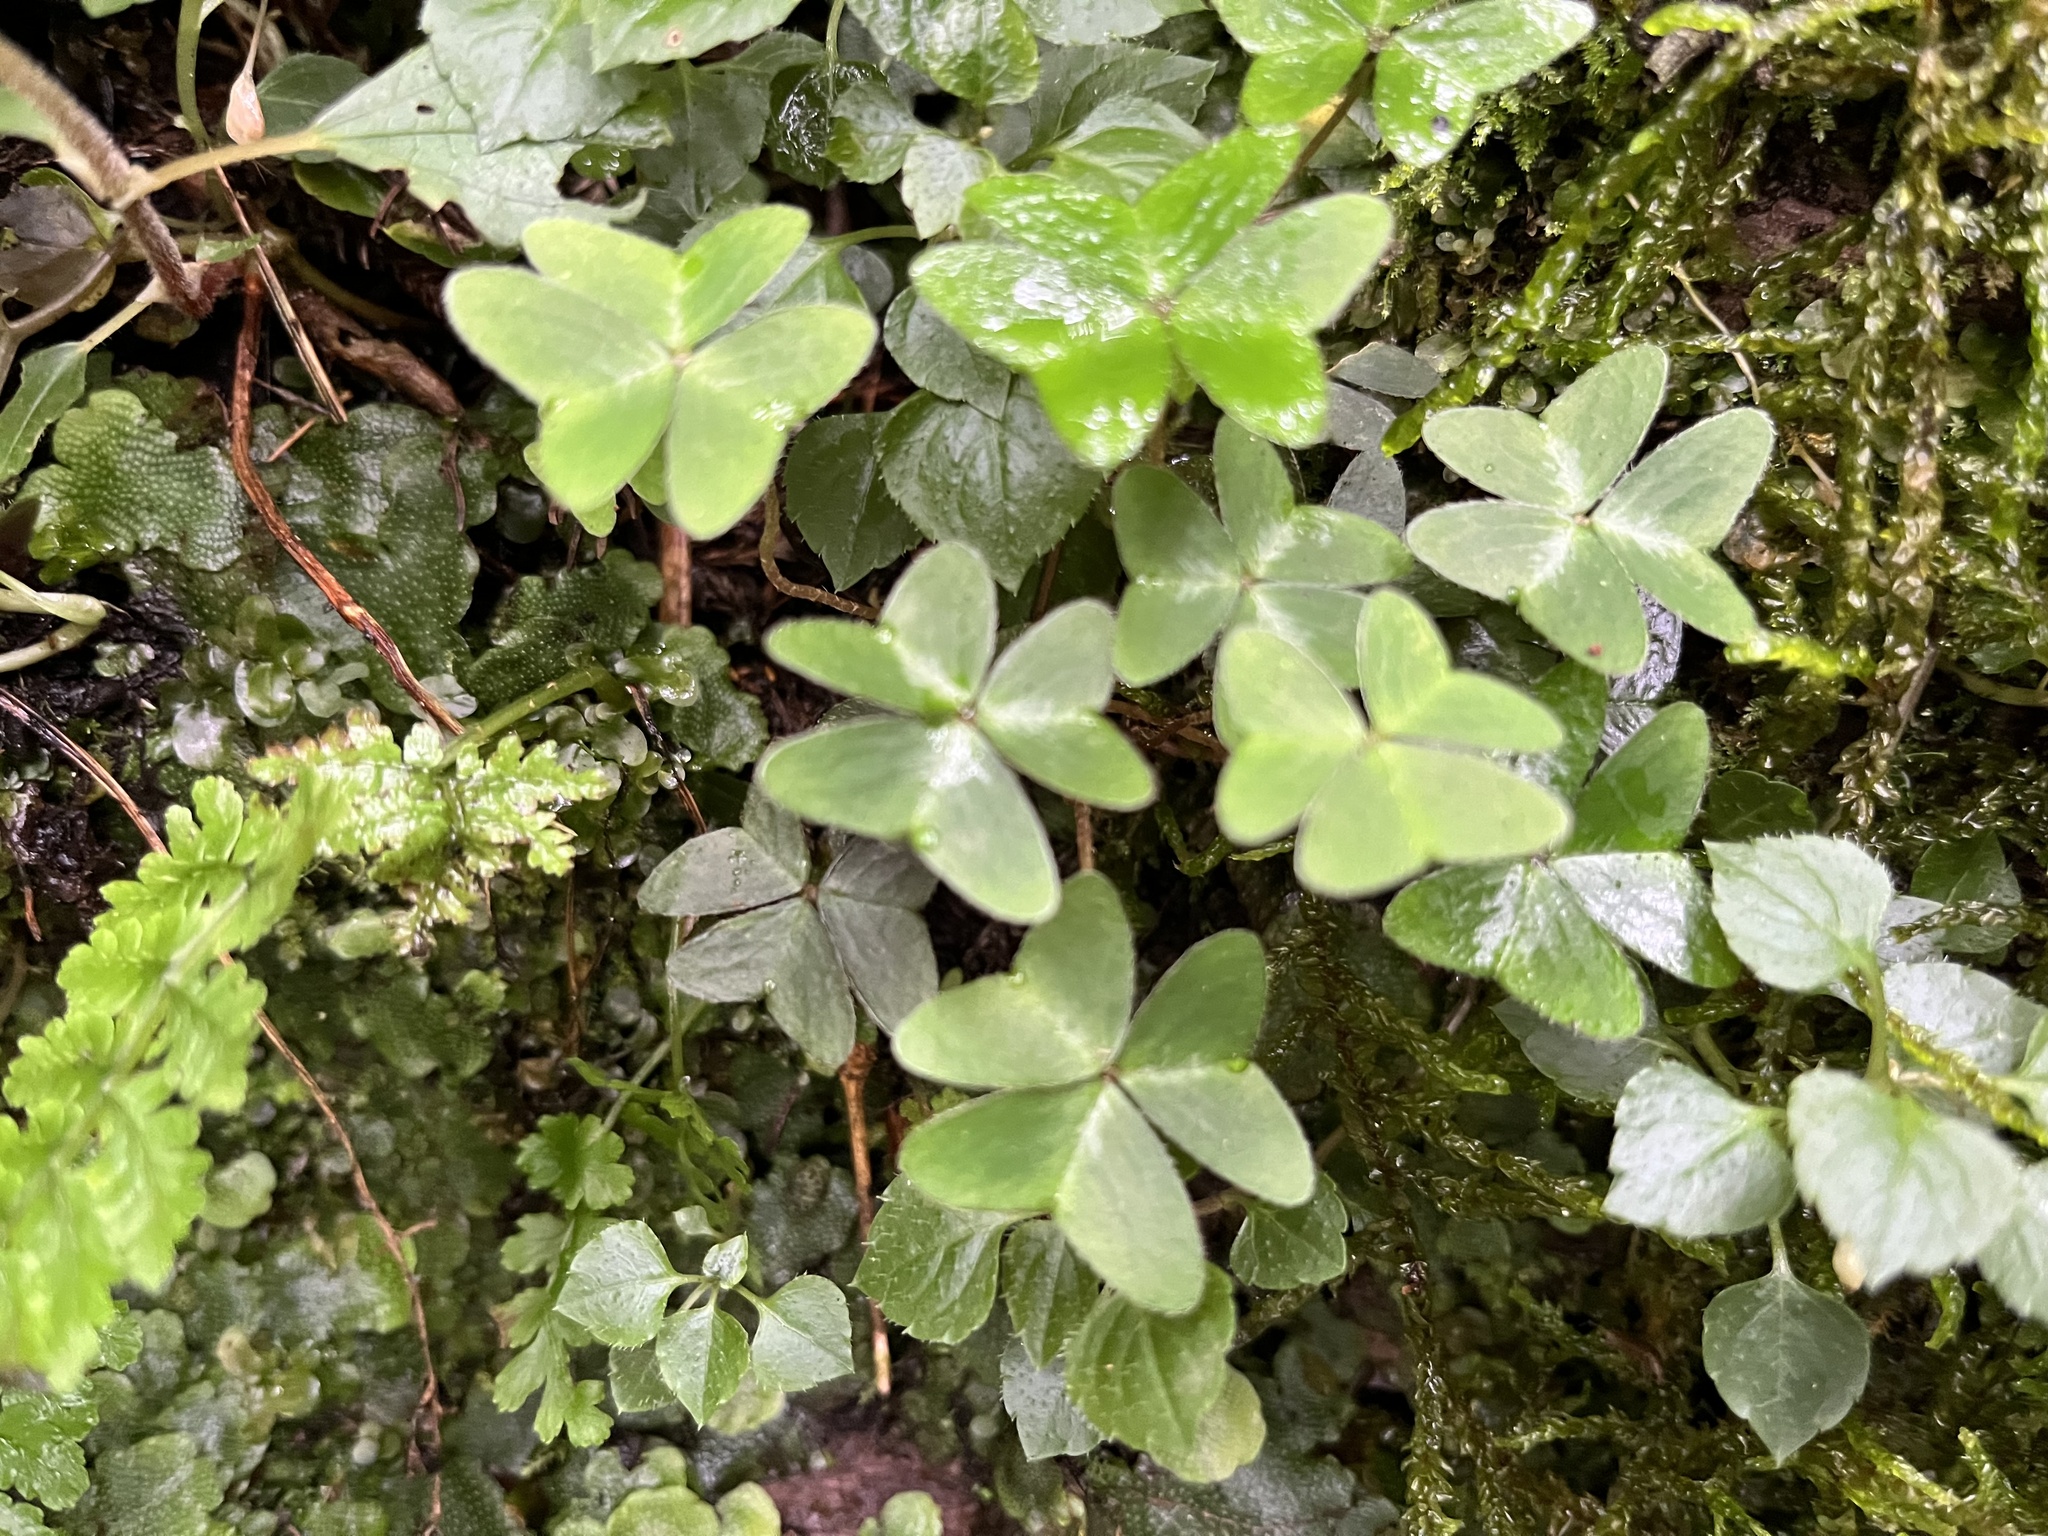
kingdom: Plantae
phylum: Tracheophyta
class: Magnoliopsida
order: Oxalidales
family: Oxalidaceae
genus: Oxalis
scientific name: Oxalis griffithii
